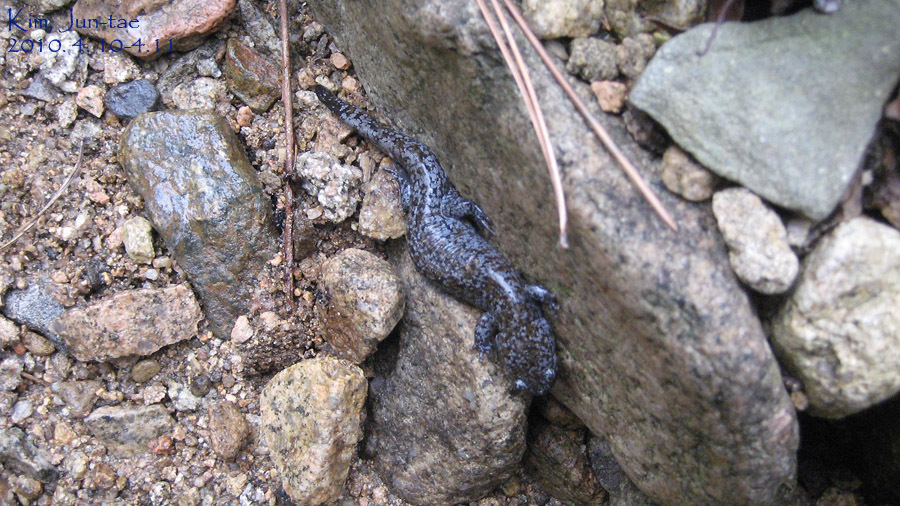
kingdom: Animalia
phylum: Chordata
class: Amphibia
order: Caudata
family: Hynobiidae
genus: Hynobius
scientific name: Hynobius quelpaertensis
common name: Cheju salamander
